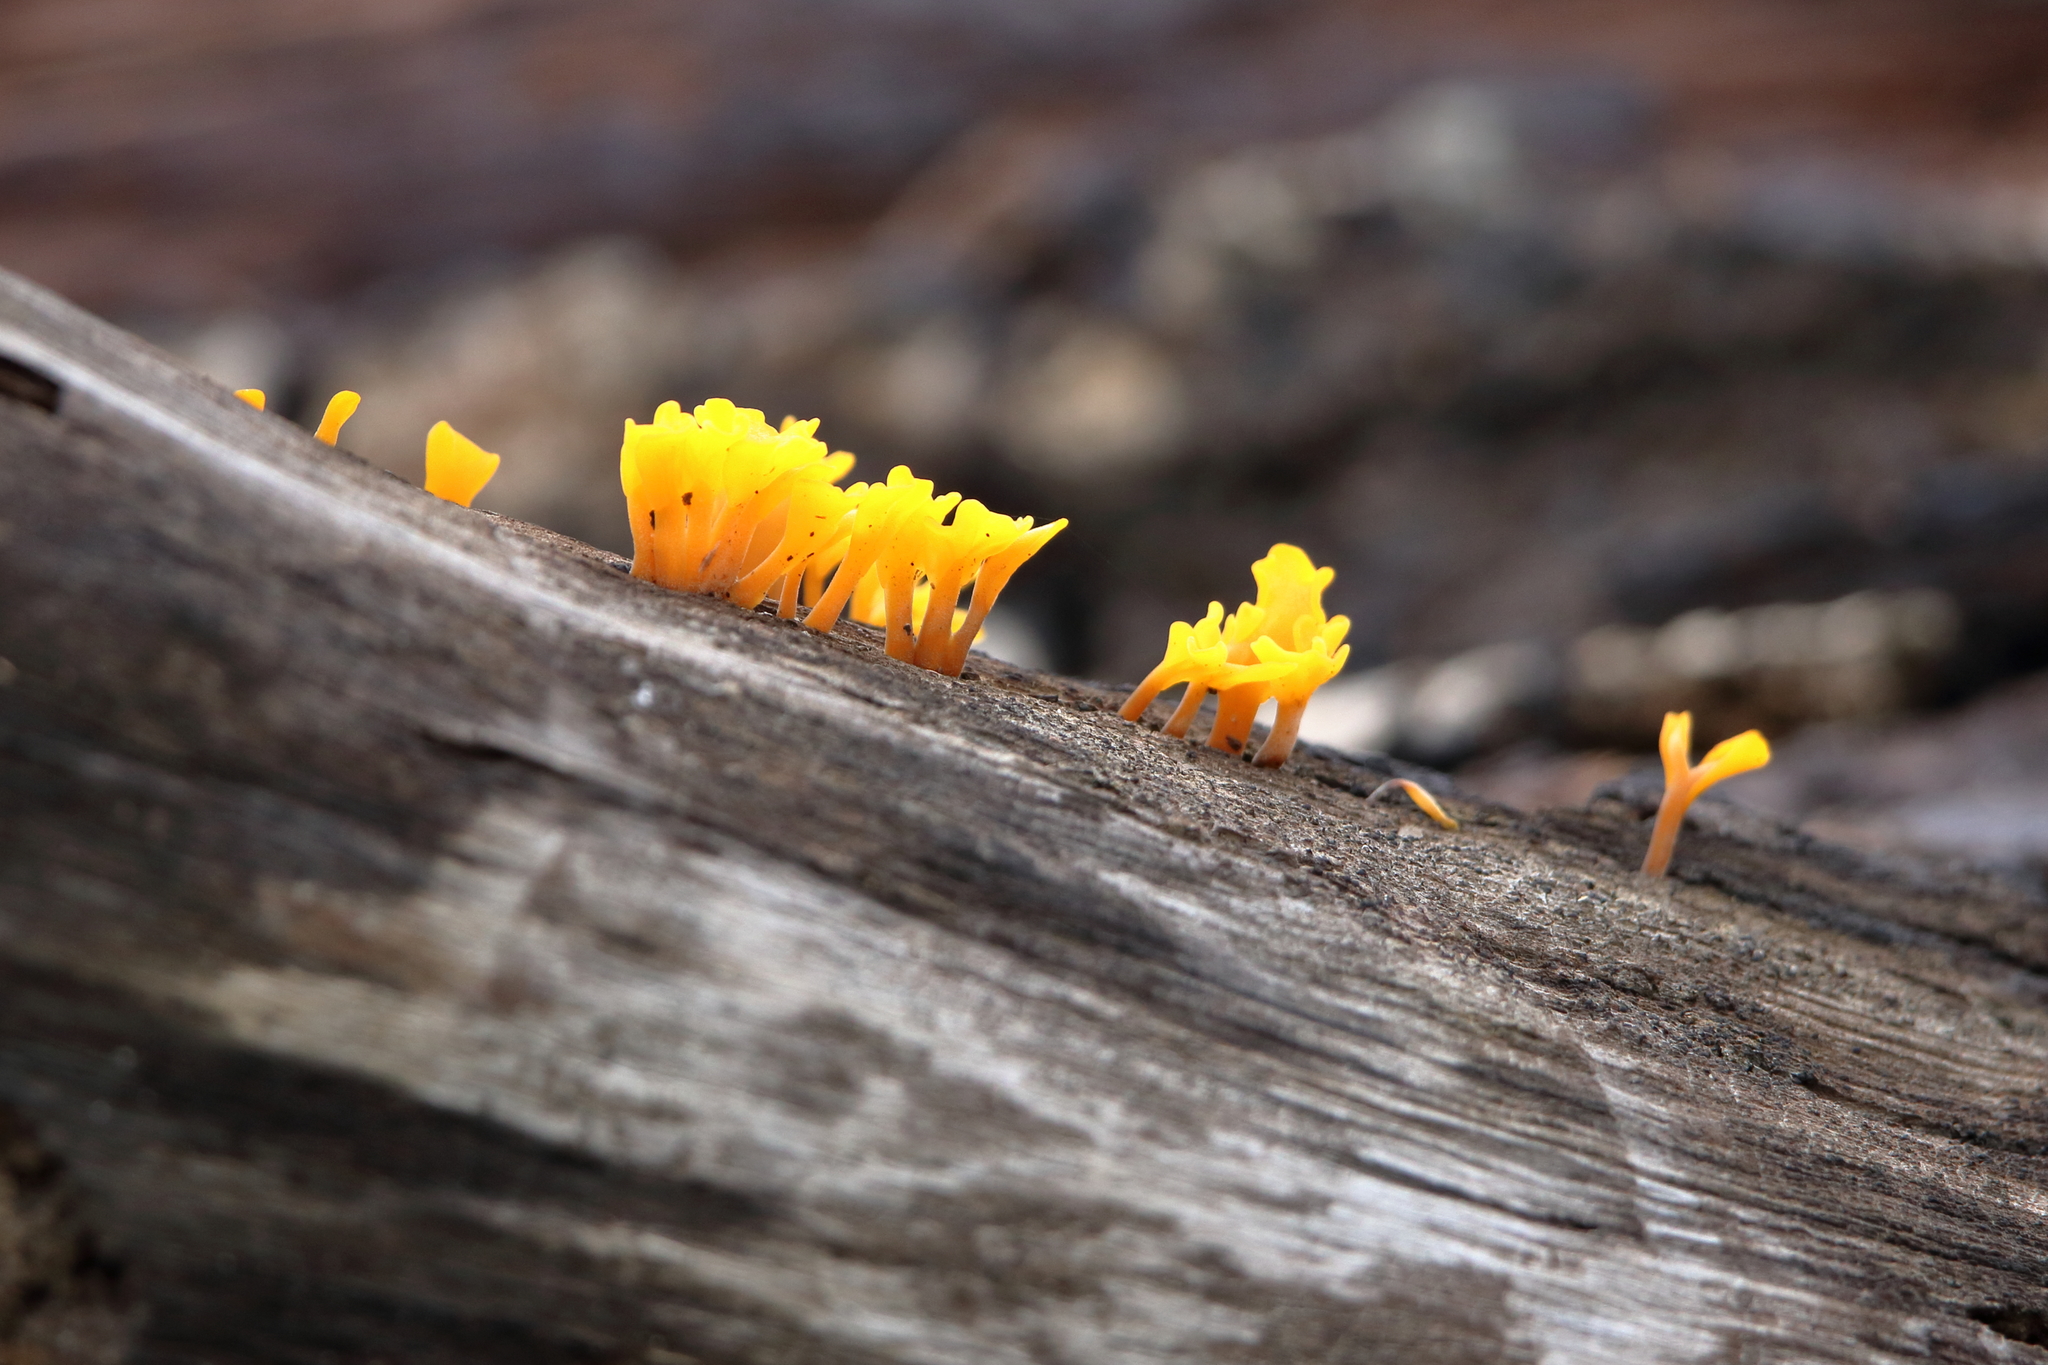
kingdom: Fungi
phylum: Basidiomycota
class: Dacrymycetes
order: Dacrymycetales
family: Dacrymycetaceae
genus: Dacrymyces
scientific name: Dacrymyces spathularius
